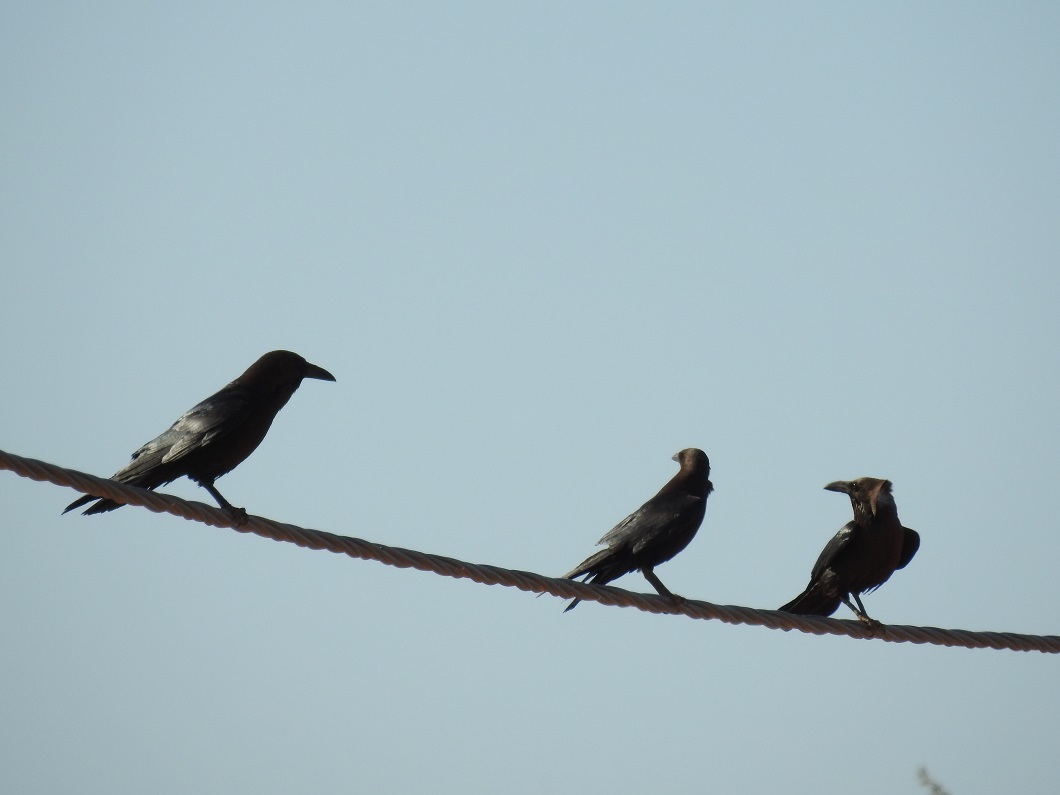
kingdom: Animalia
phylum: Chordata
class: Aves
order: Passeriformes
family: Corvidae
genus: Corvus
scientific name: Corvus ruficollis
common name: Brown-necked raven
